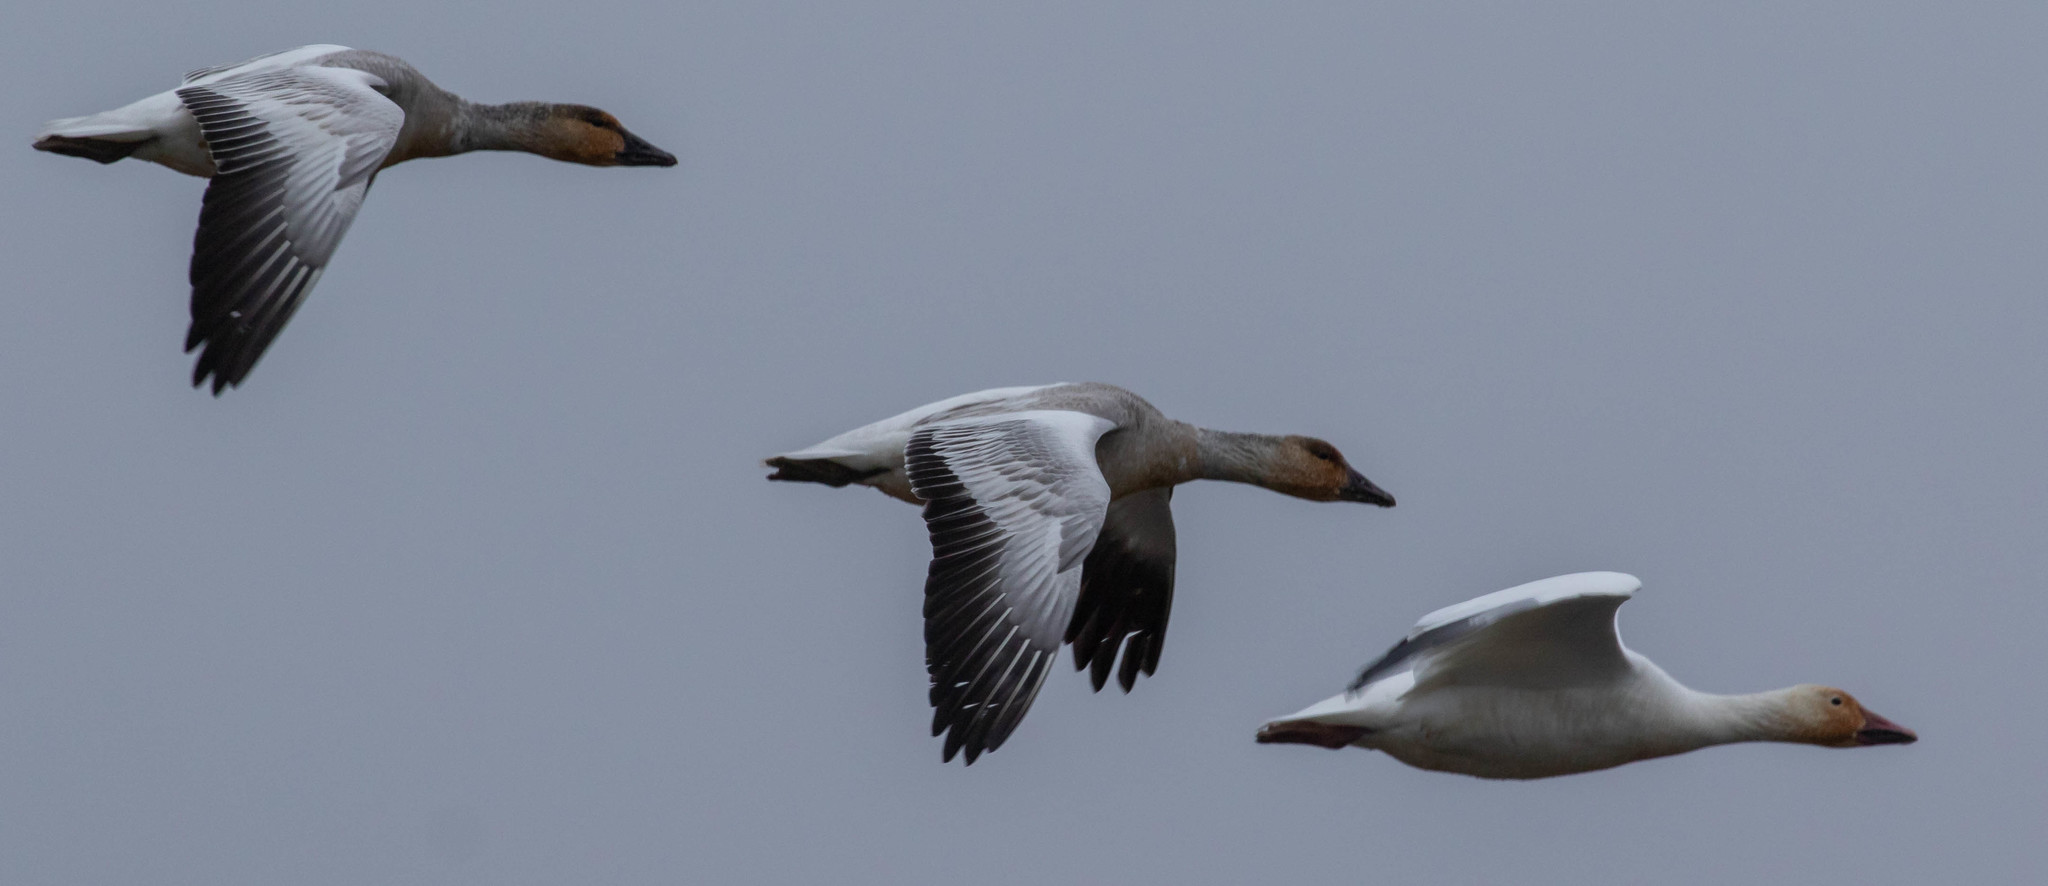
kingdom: Animalia
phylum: Chordata
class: Aves
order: Anseriformes
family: Anatidae
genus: Anser
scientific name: Anser caerulescens
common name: Snow goose
